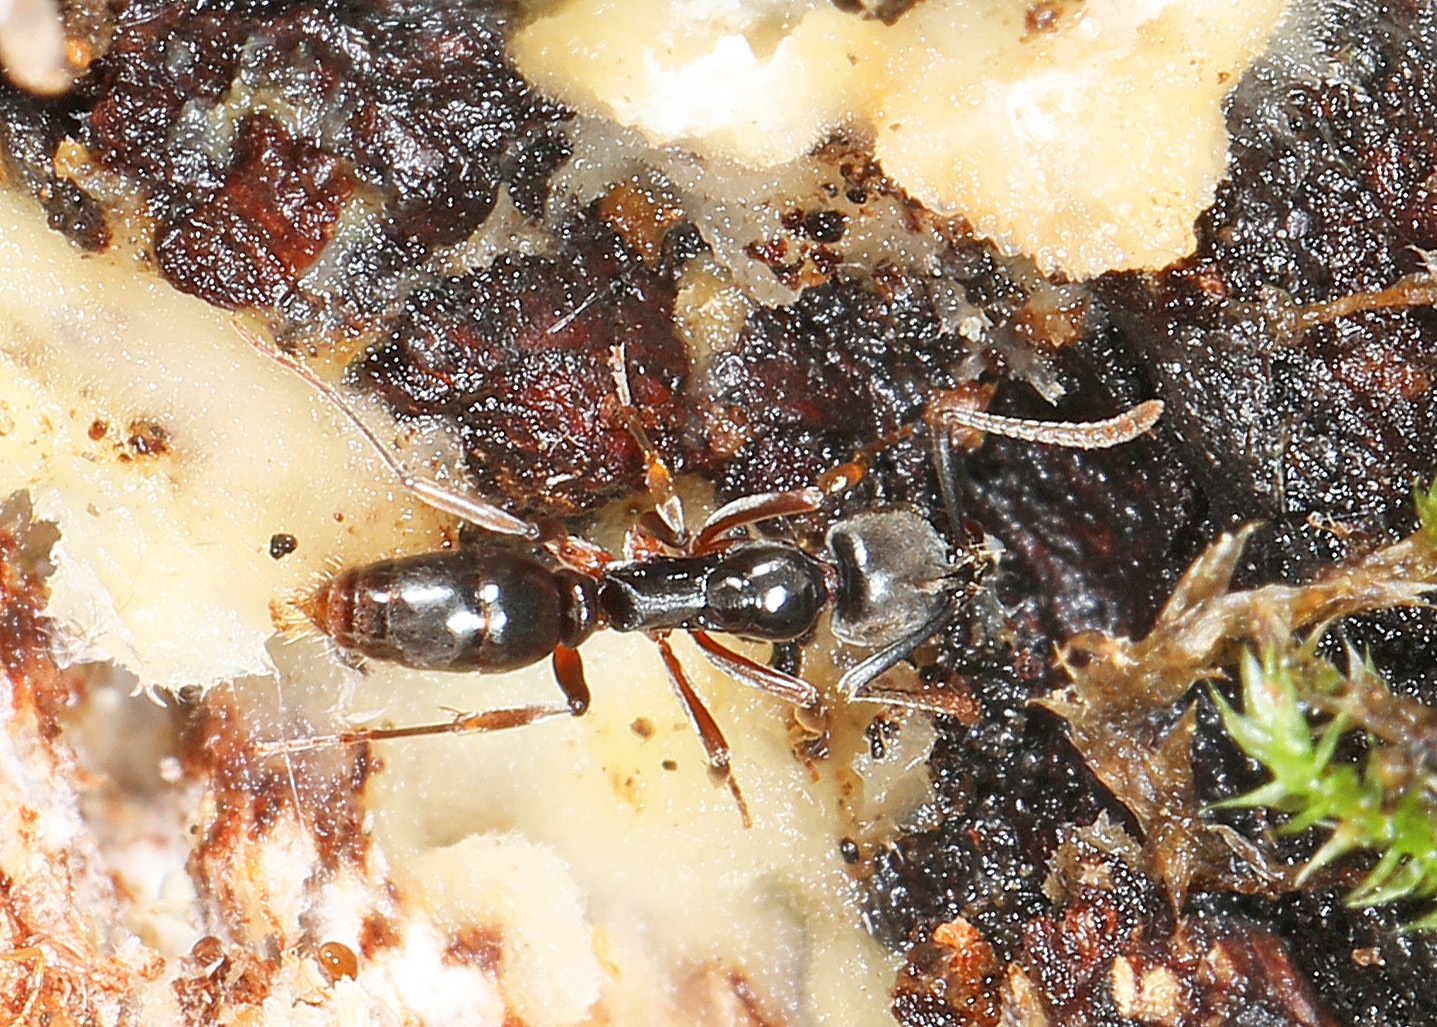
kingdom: Animalia
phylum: Arthropoda
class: Insecta
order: Hymenoptera
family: Formicidae
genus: Pachycondyla
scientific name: Pachycondyla chinensis
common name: Asian needle ant
